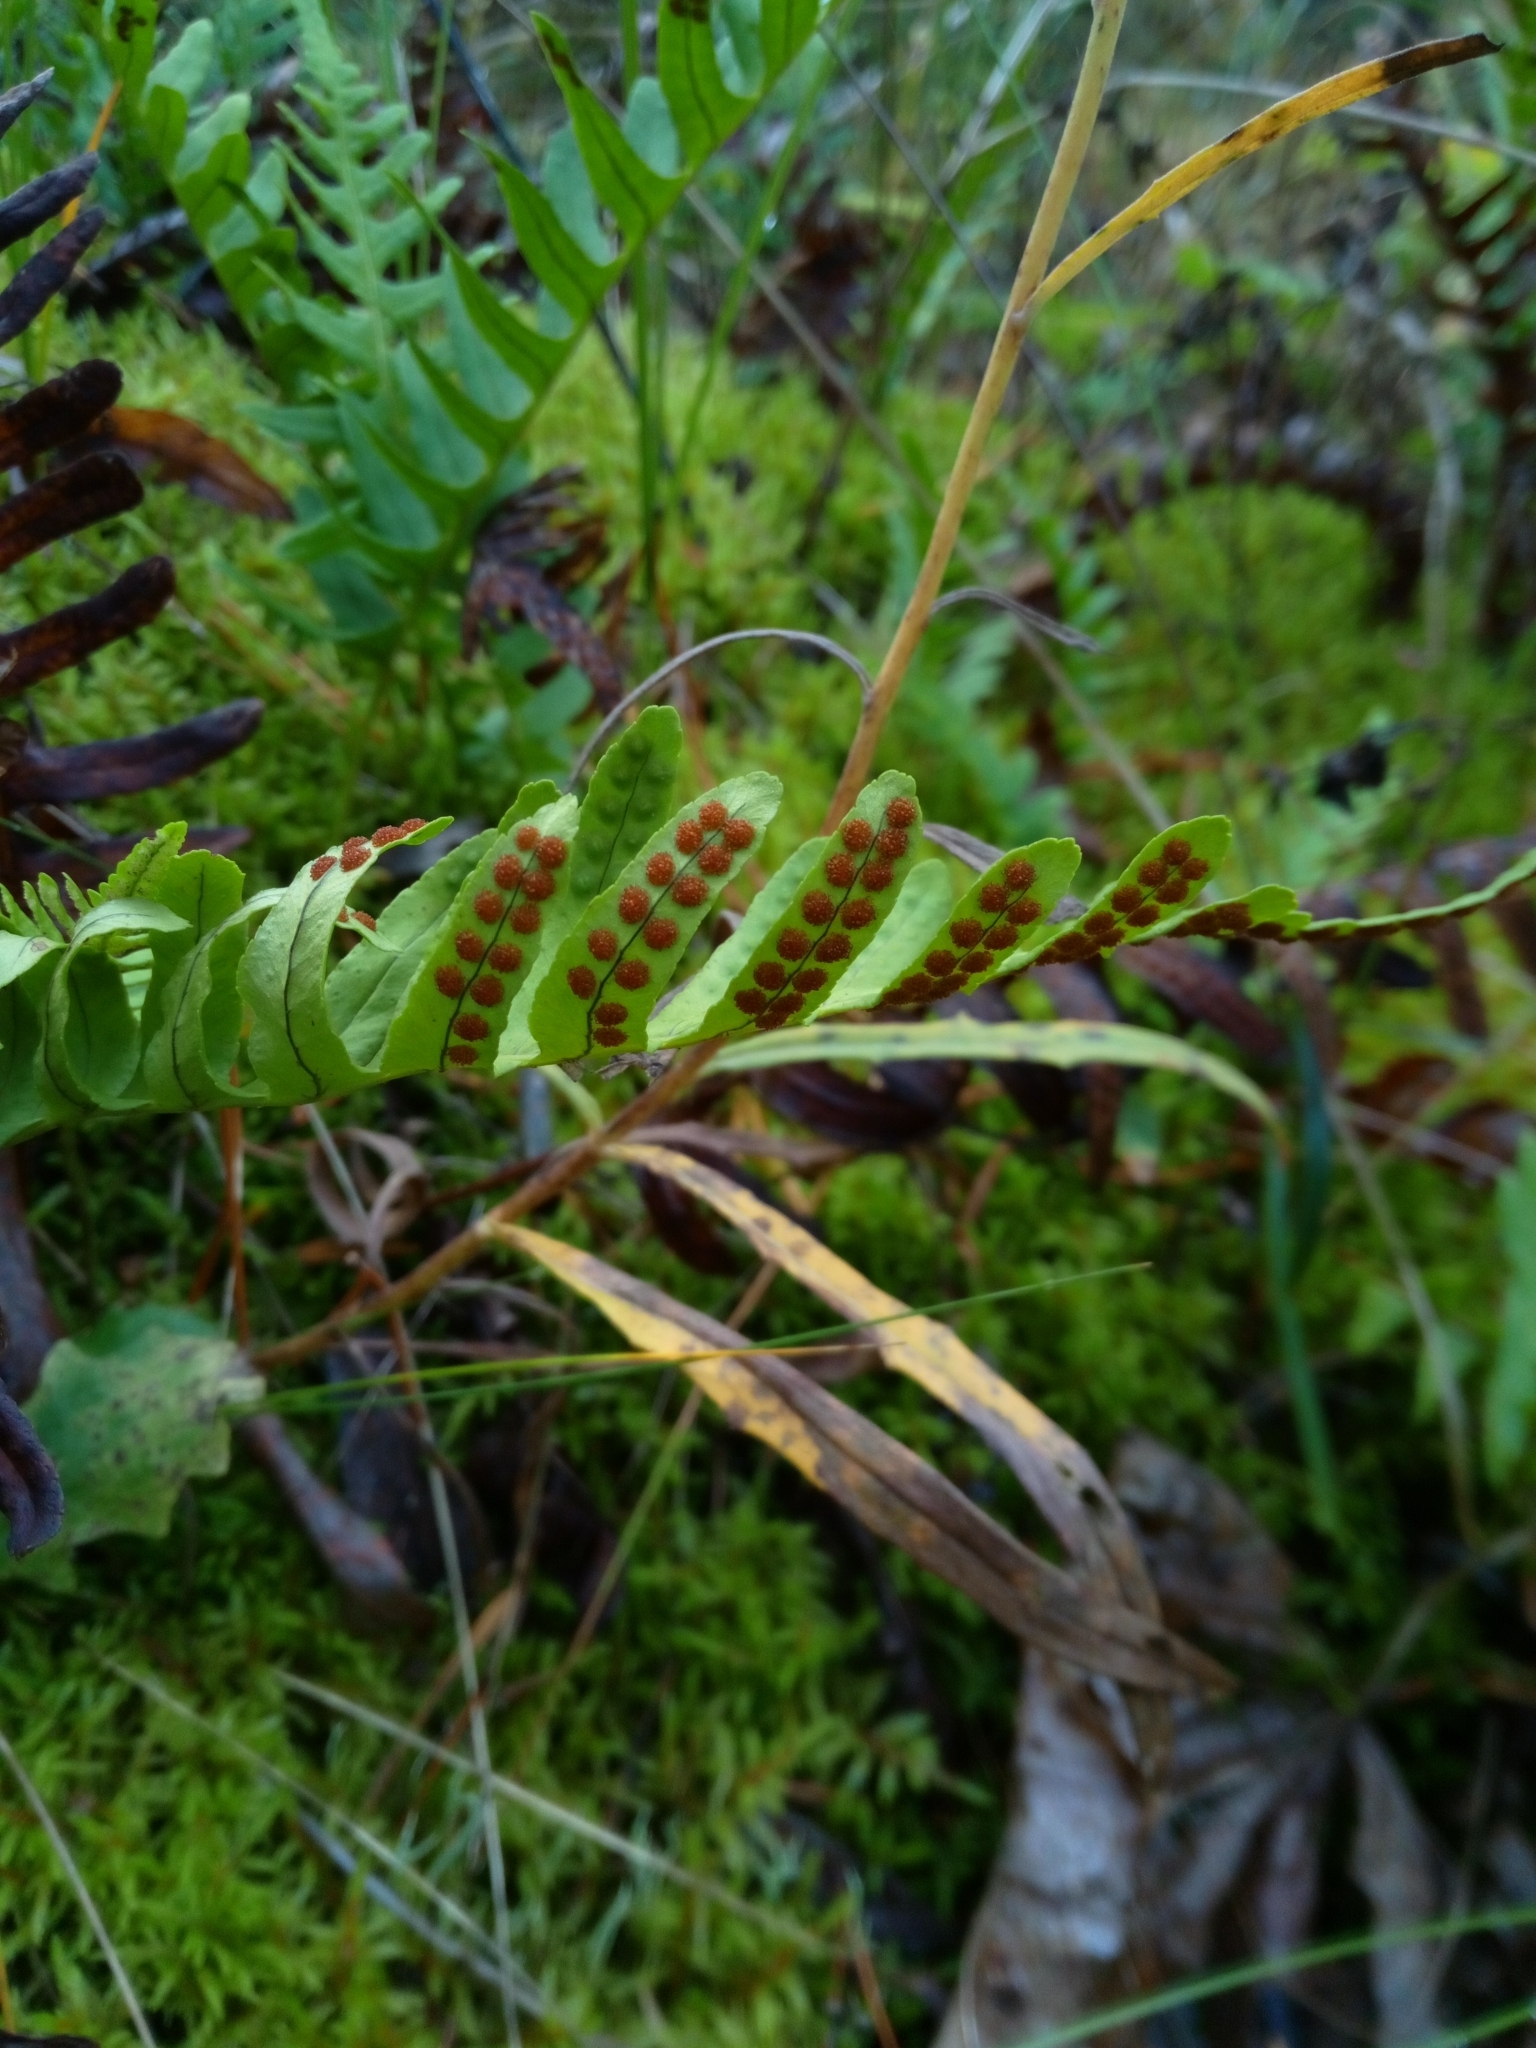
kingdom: Plantae
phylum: Tracheophyta
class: Polypodiopsida
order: Polypodiales
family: Polypodiaceae
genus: Polypodium
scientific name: Polypodium vulgare
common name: Common polypody
